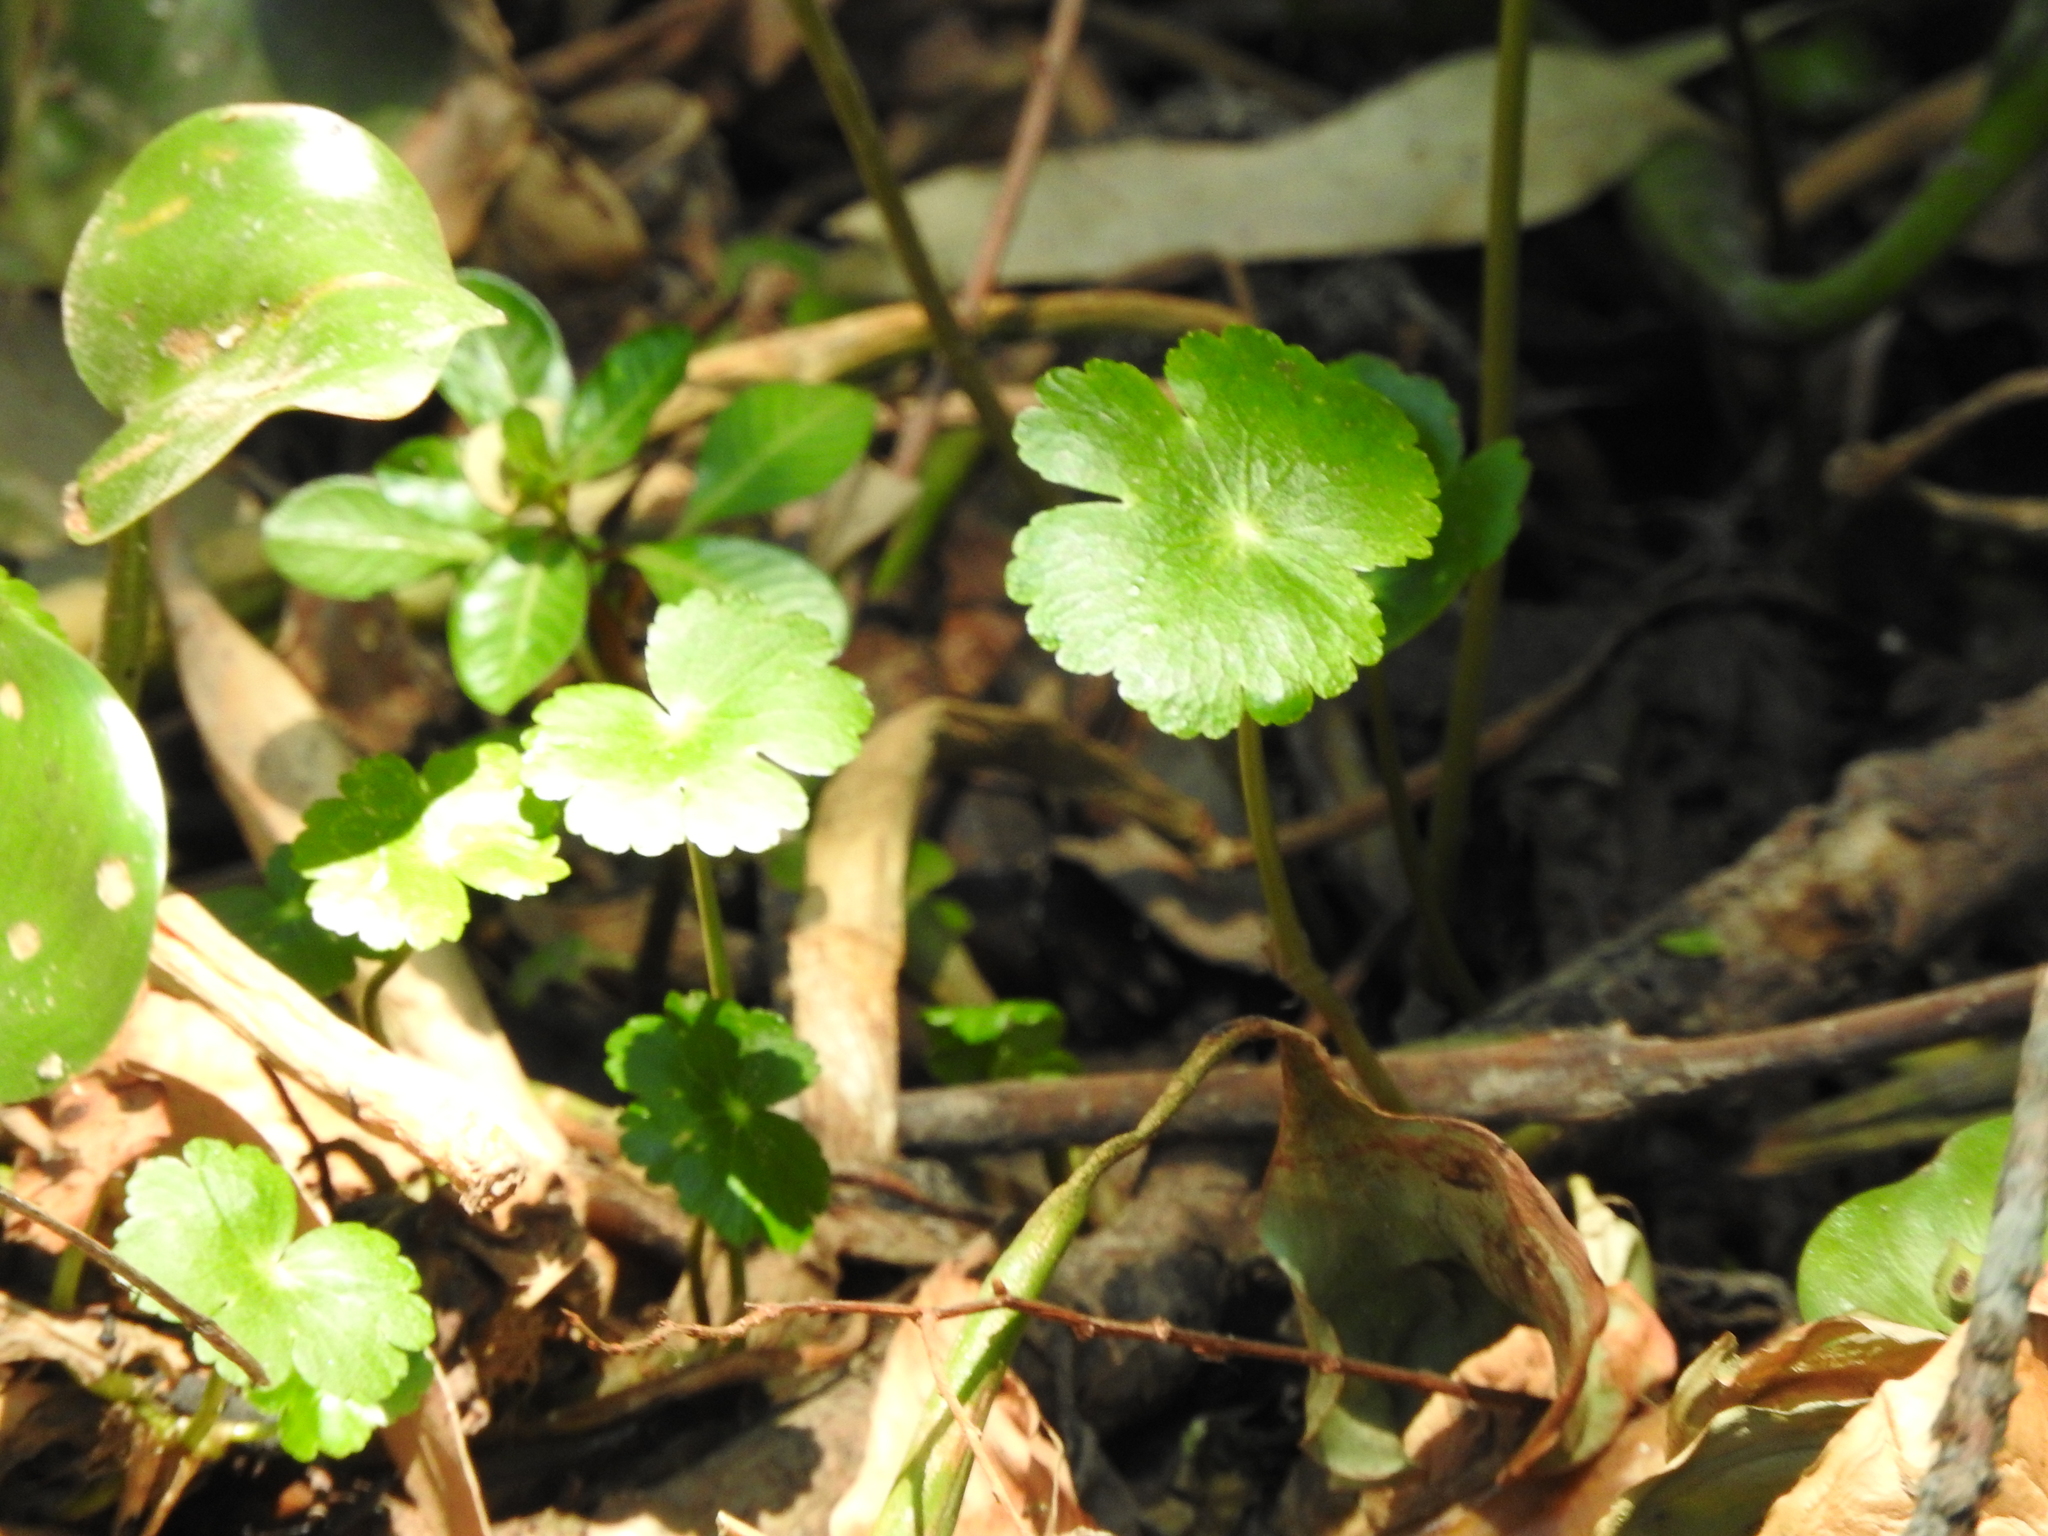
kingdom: Plantae
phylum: Tracheophyta
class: Magnoliopsida
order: Apiales
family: Araliaceae
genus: Hydrocotyle
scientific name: Hydrocotyle ranunculoides
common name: Floating pennywort
